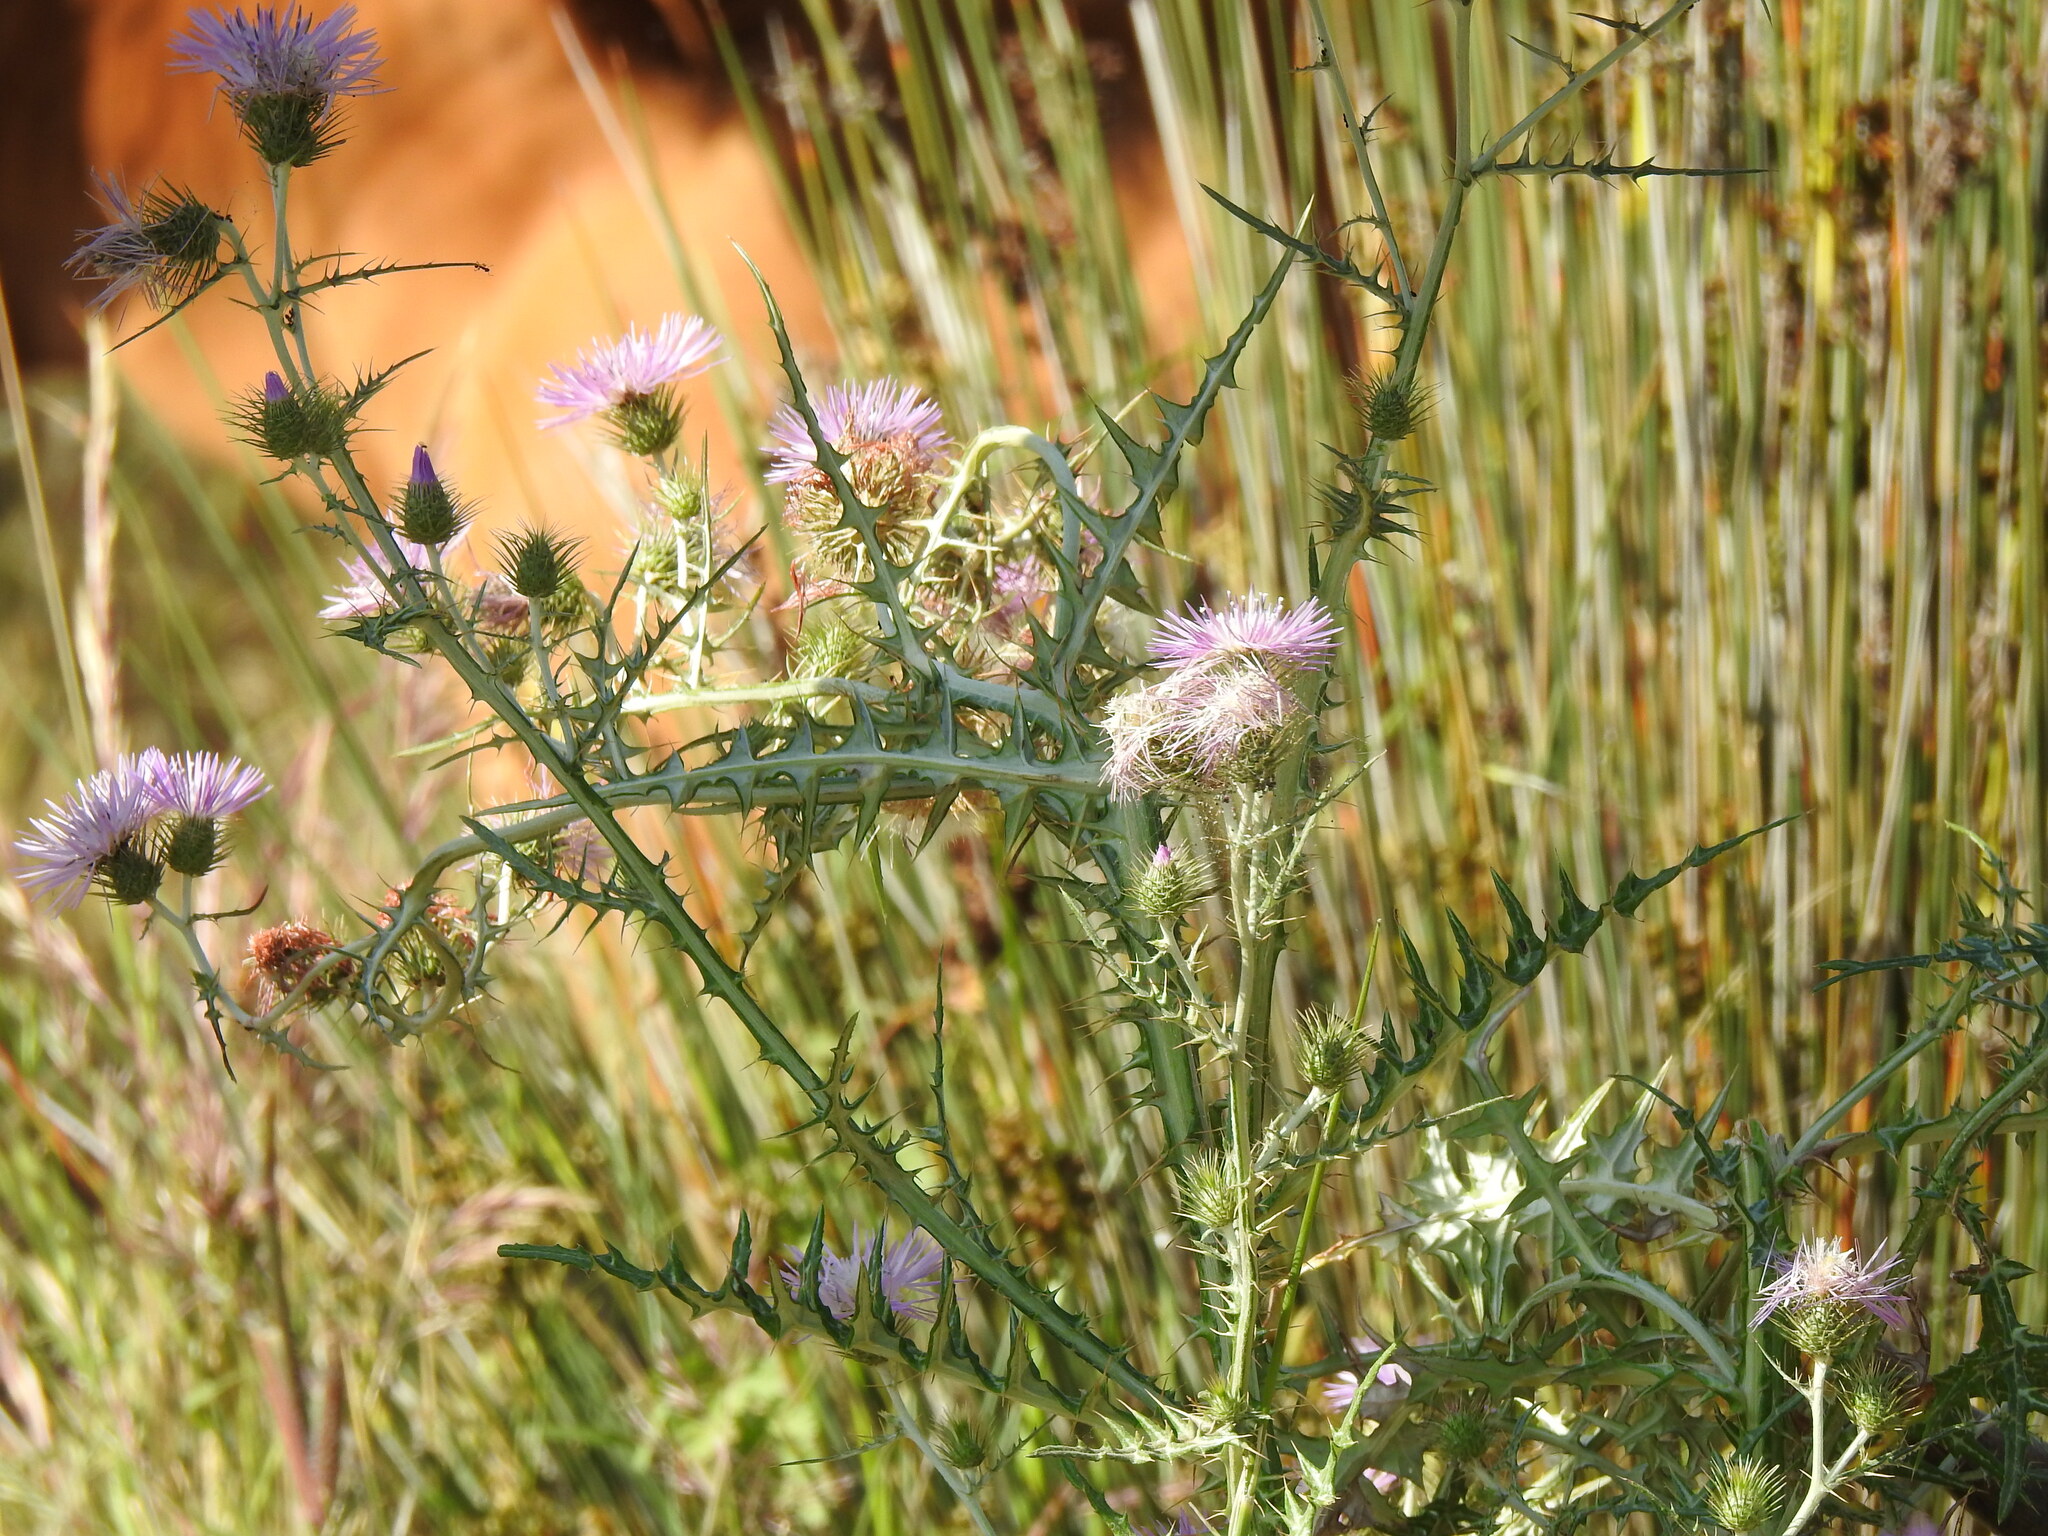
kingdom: Plantae
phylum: Tracheophyta
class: Magnoliopsida
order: Asterales
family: Asteraceae
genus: Galactites
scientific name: Galactites tomentosa
